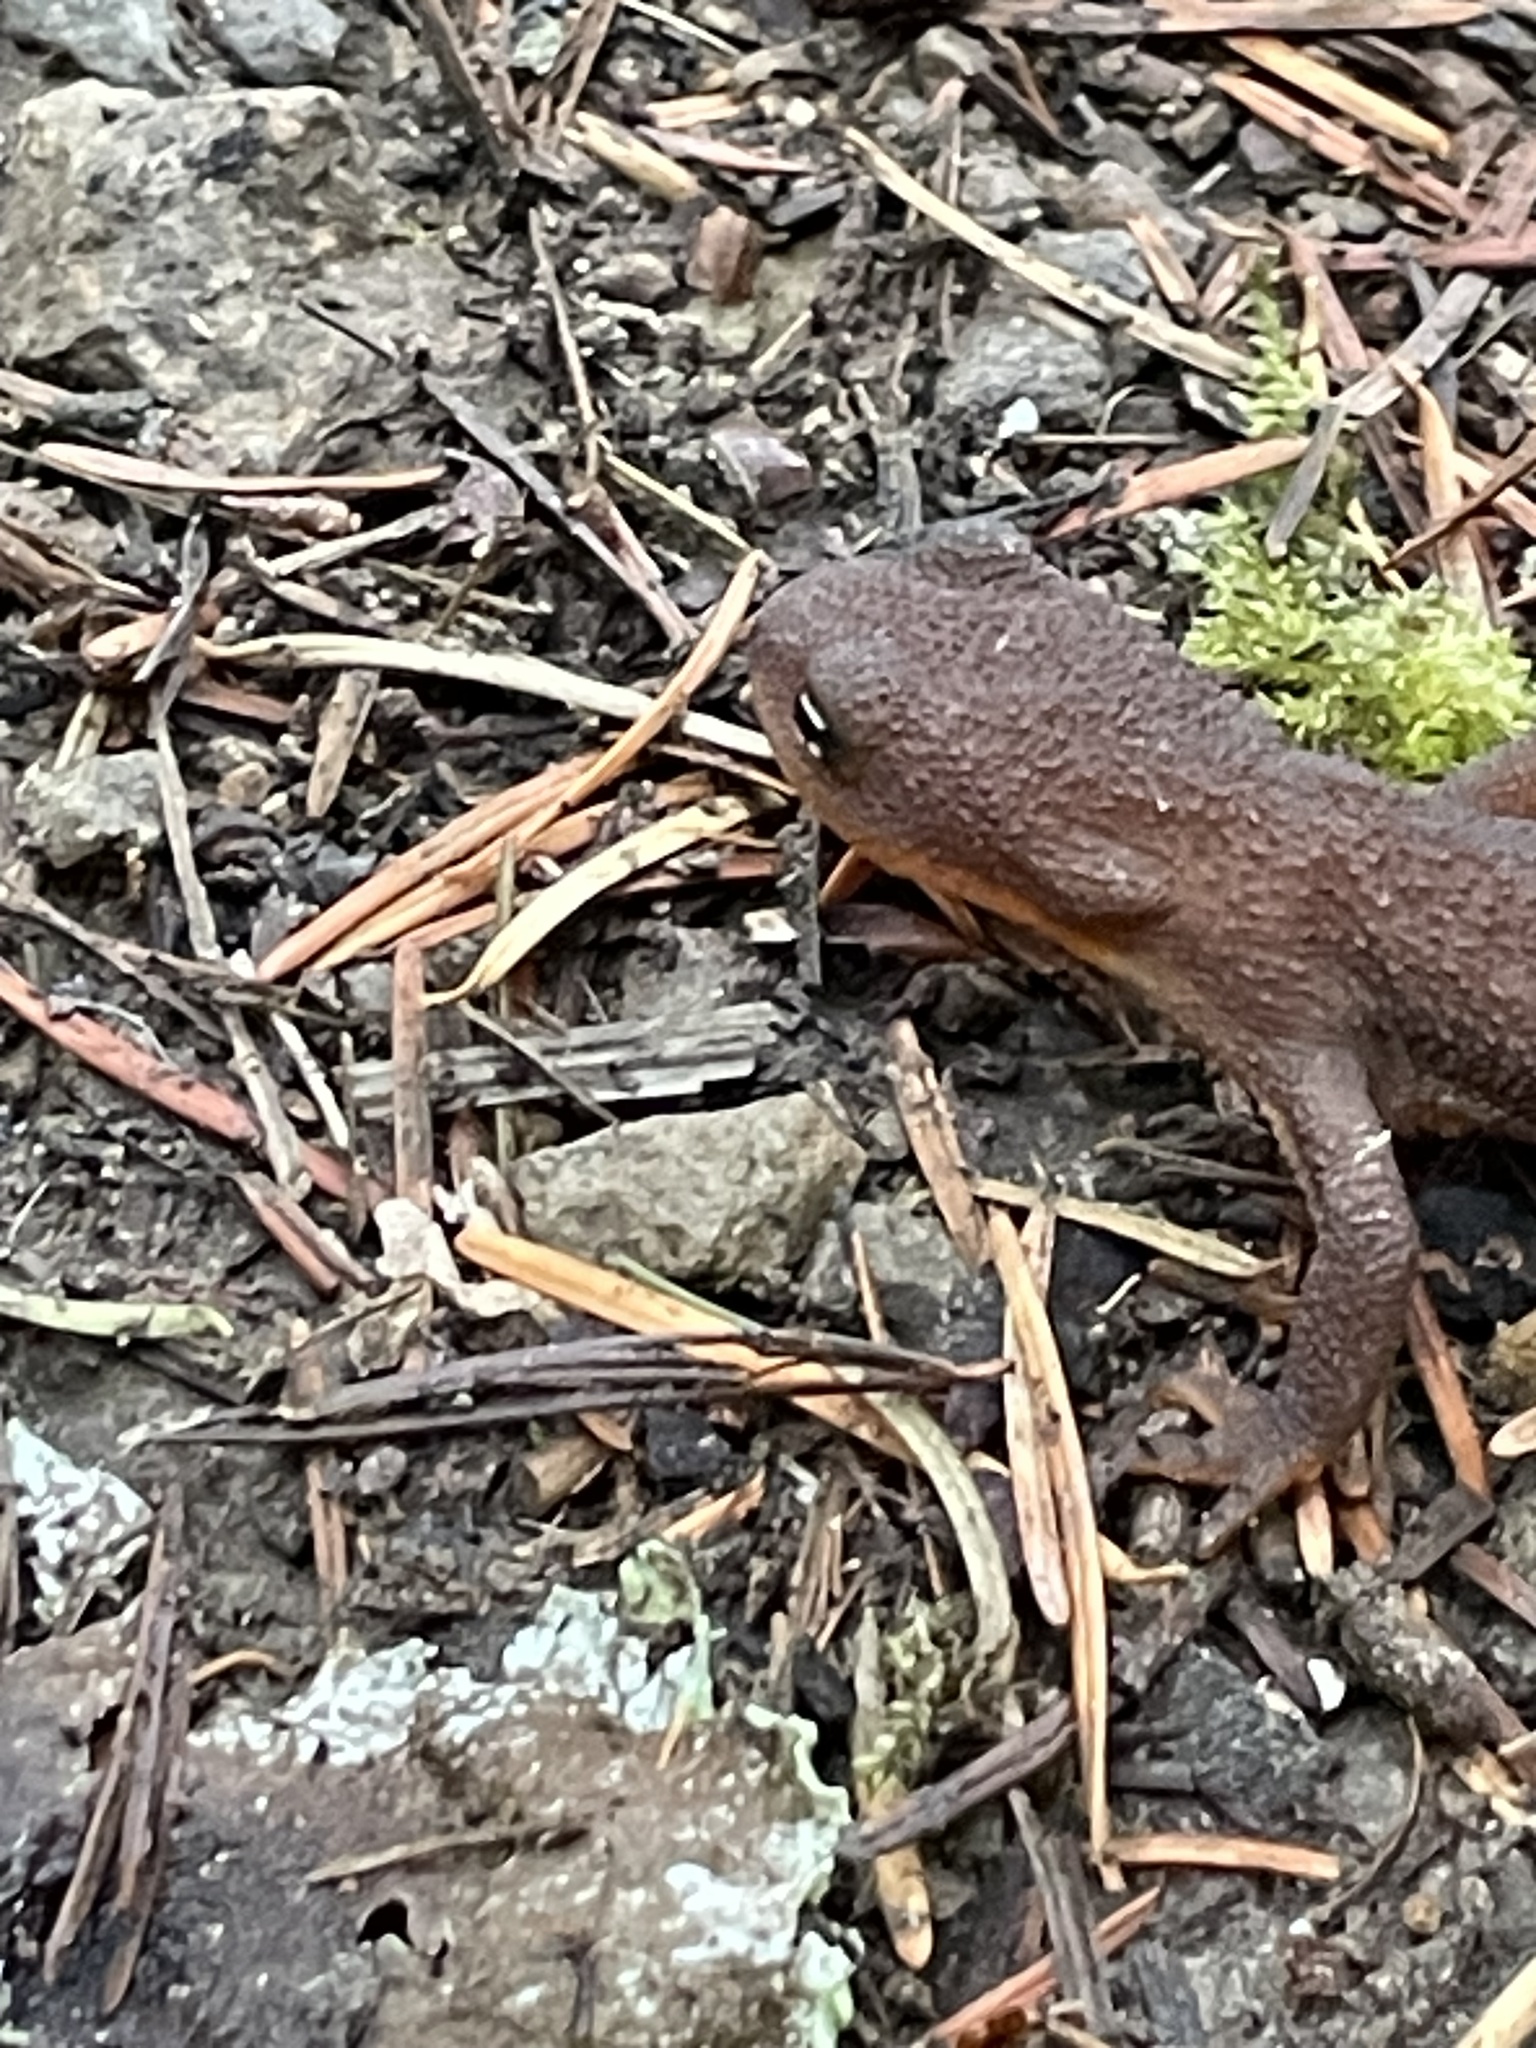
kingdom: Animalia
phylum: Chordata
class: Amphibia
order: Caudata
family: Salamandridae
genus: Taricha
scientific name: Taricha granulosa
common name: Roughskin newt
